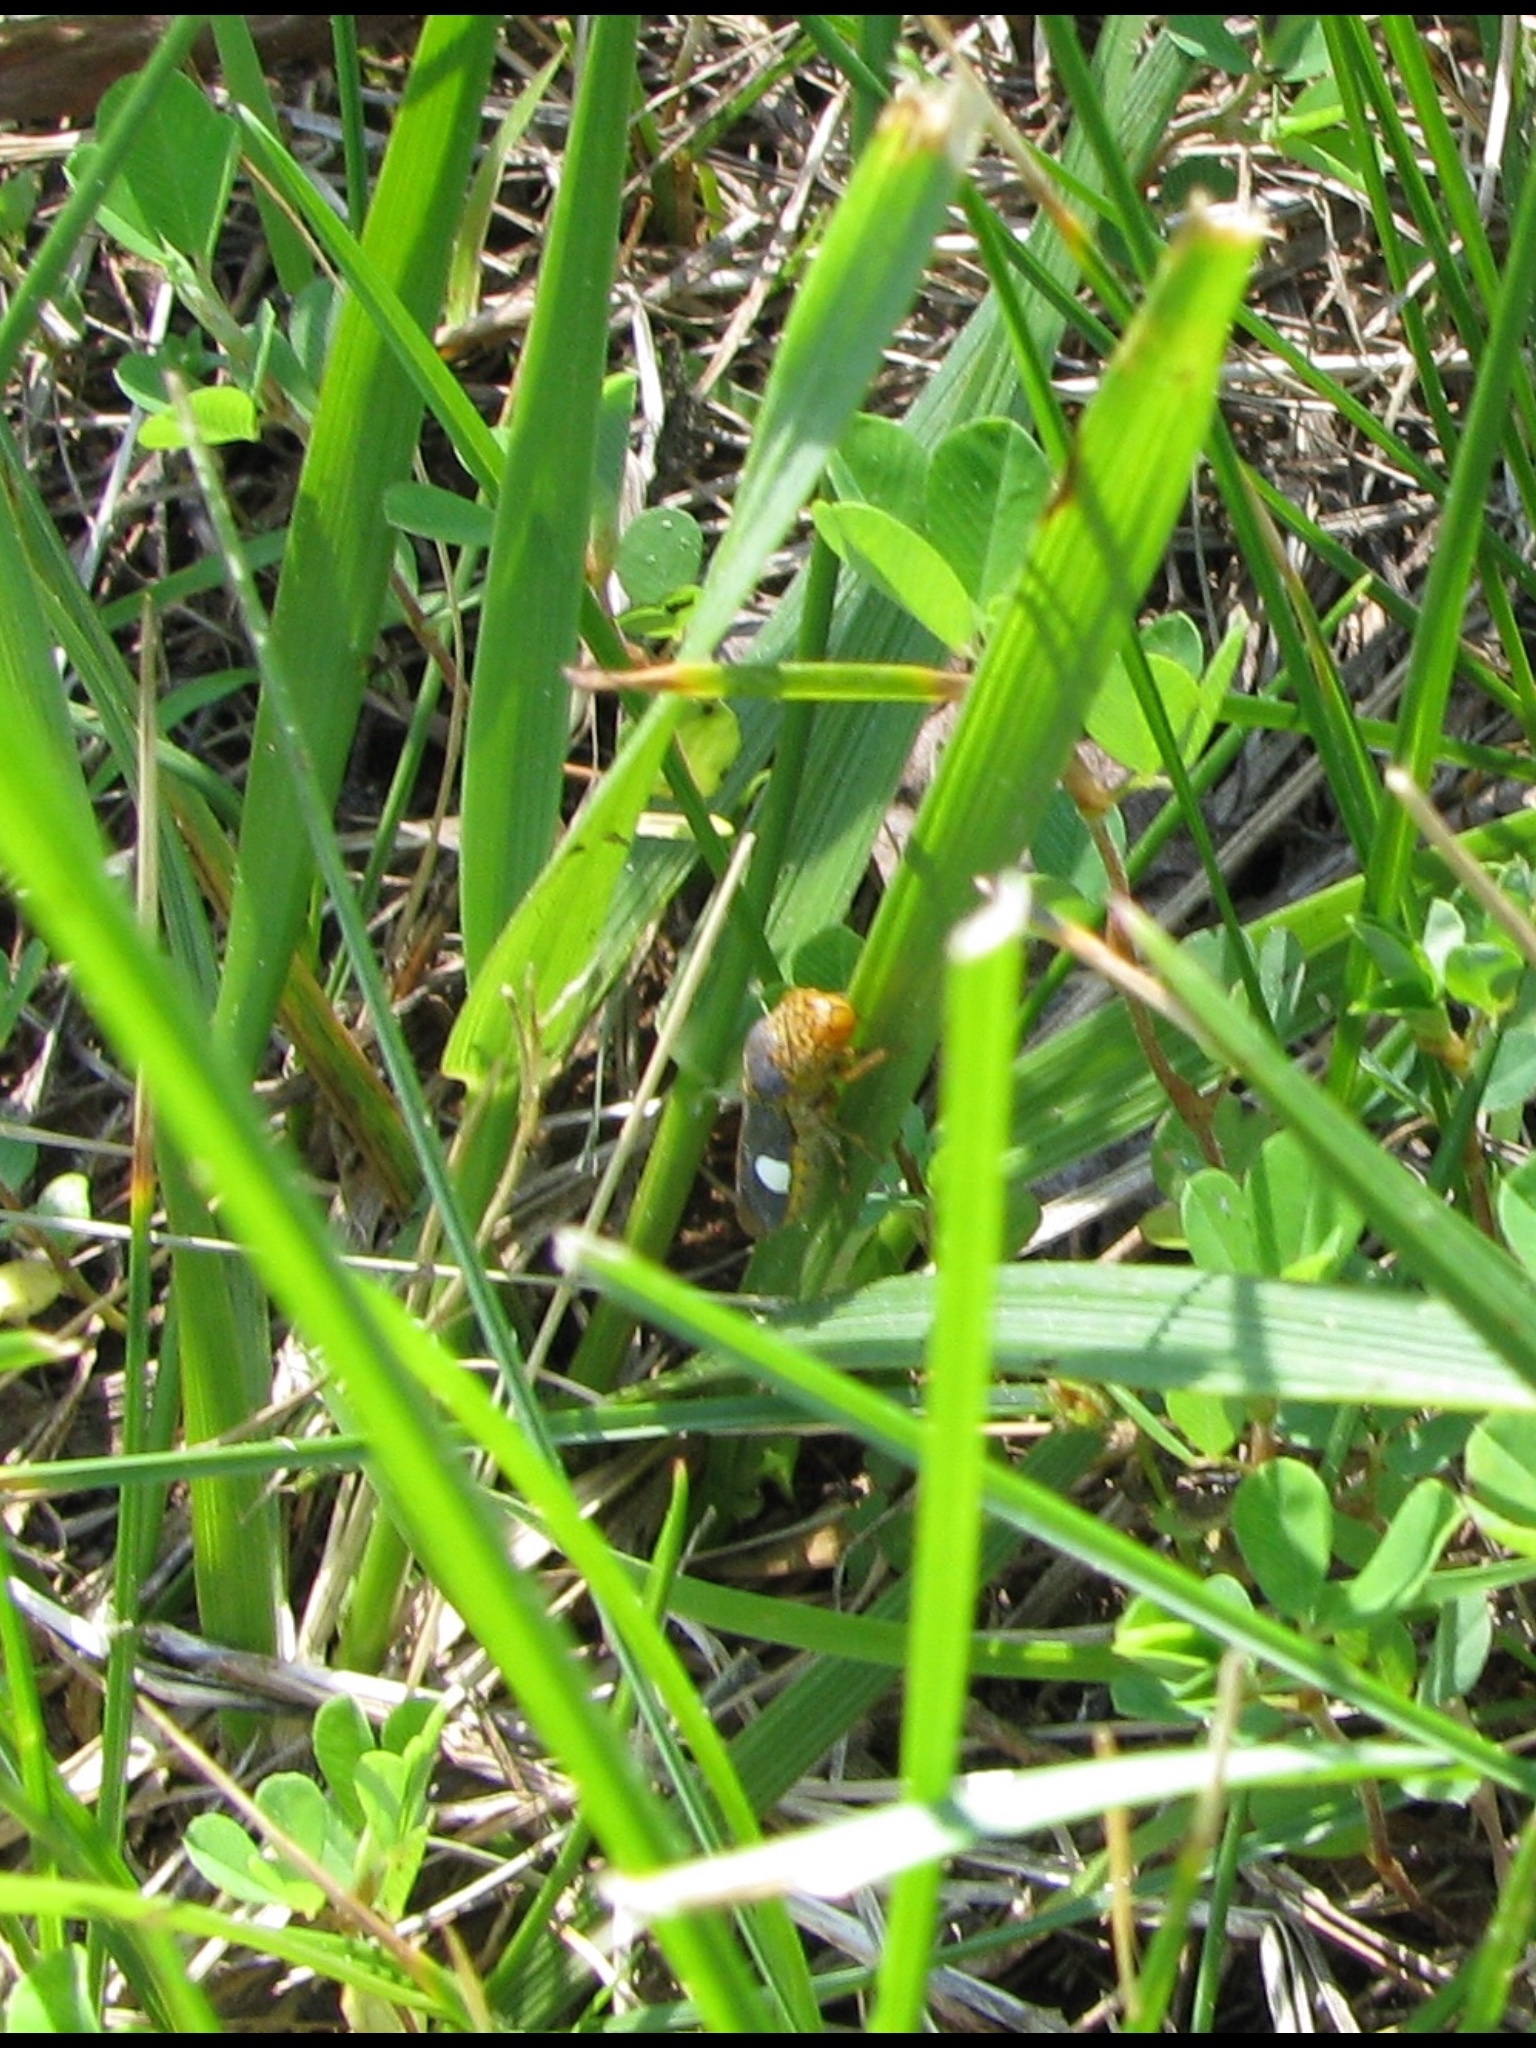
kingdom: Animalia
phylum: Arthropoda
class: Insecta
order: Hemiptera
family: Cicadellidae
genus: Oncometopia
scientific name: Oncometopia orbona
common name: Broad-headed sharpshooter
